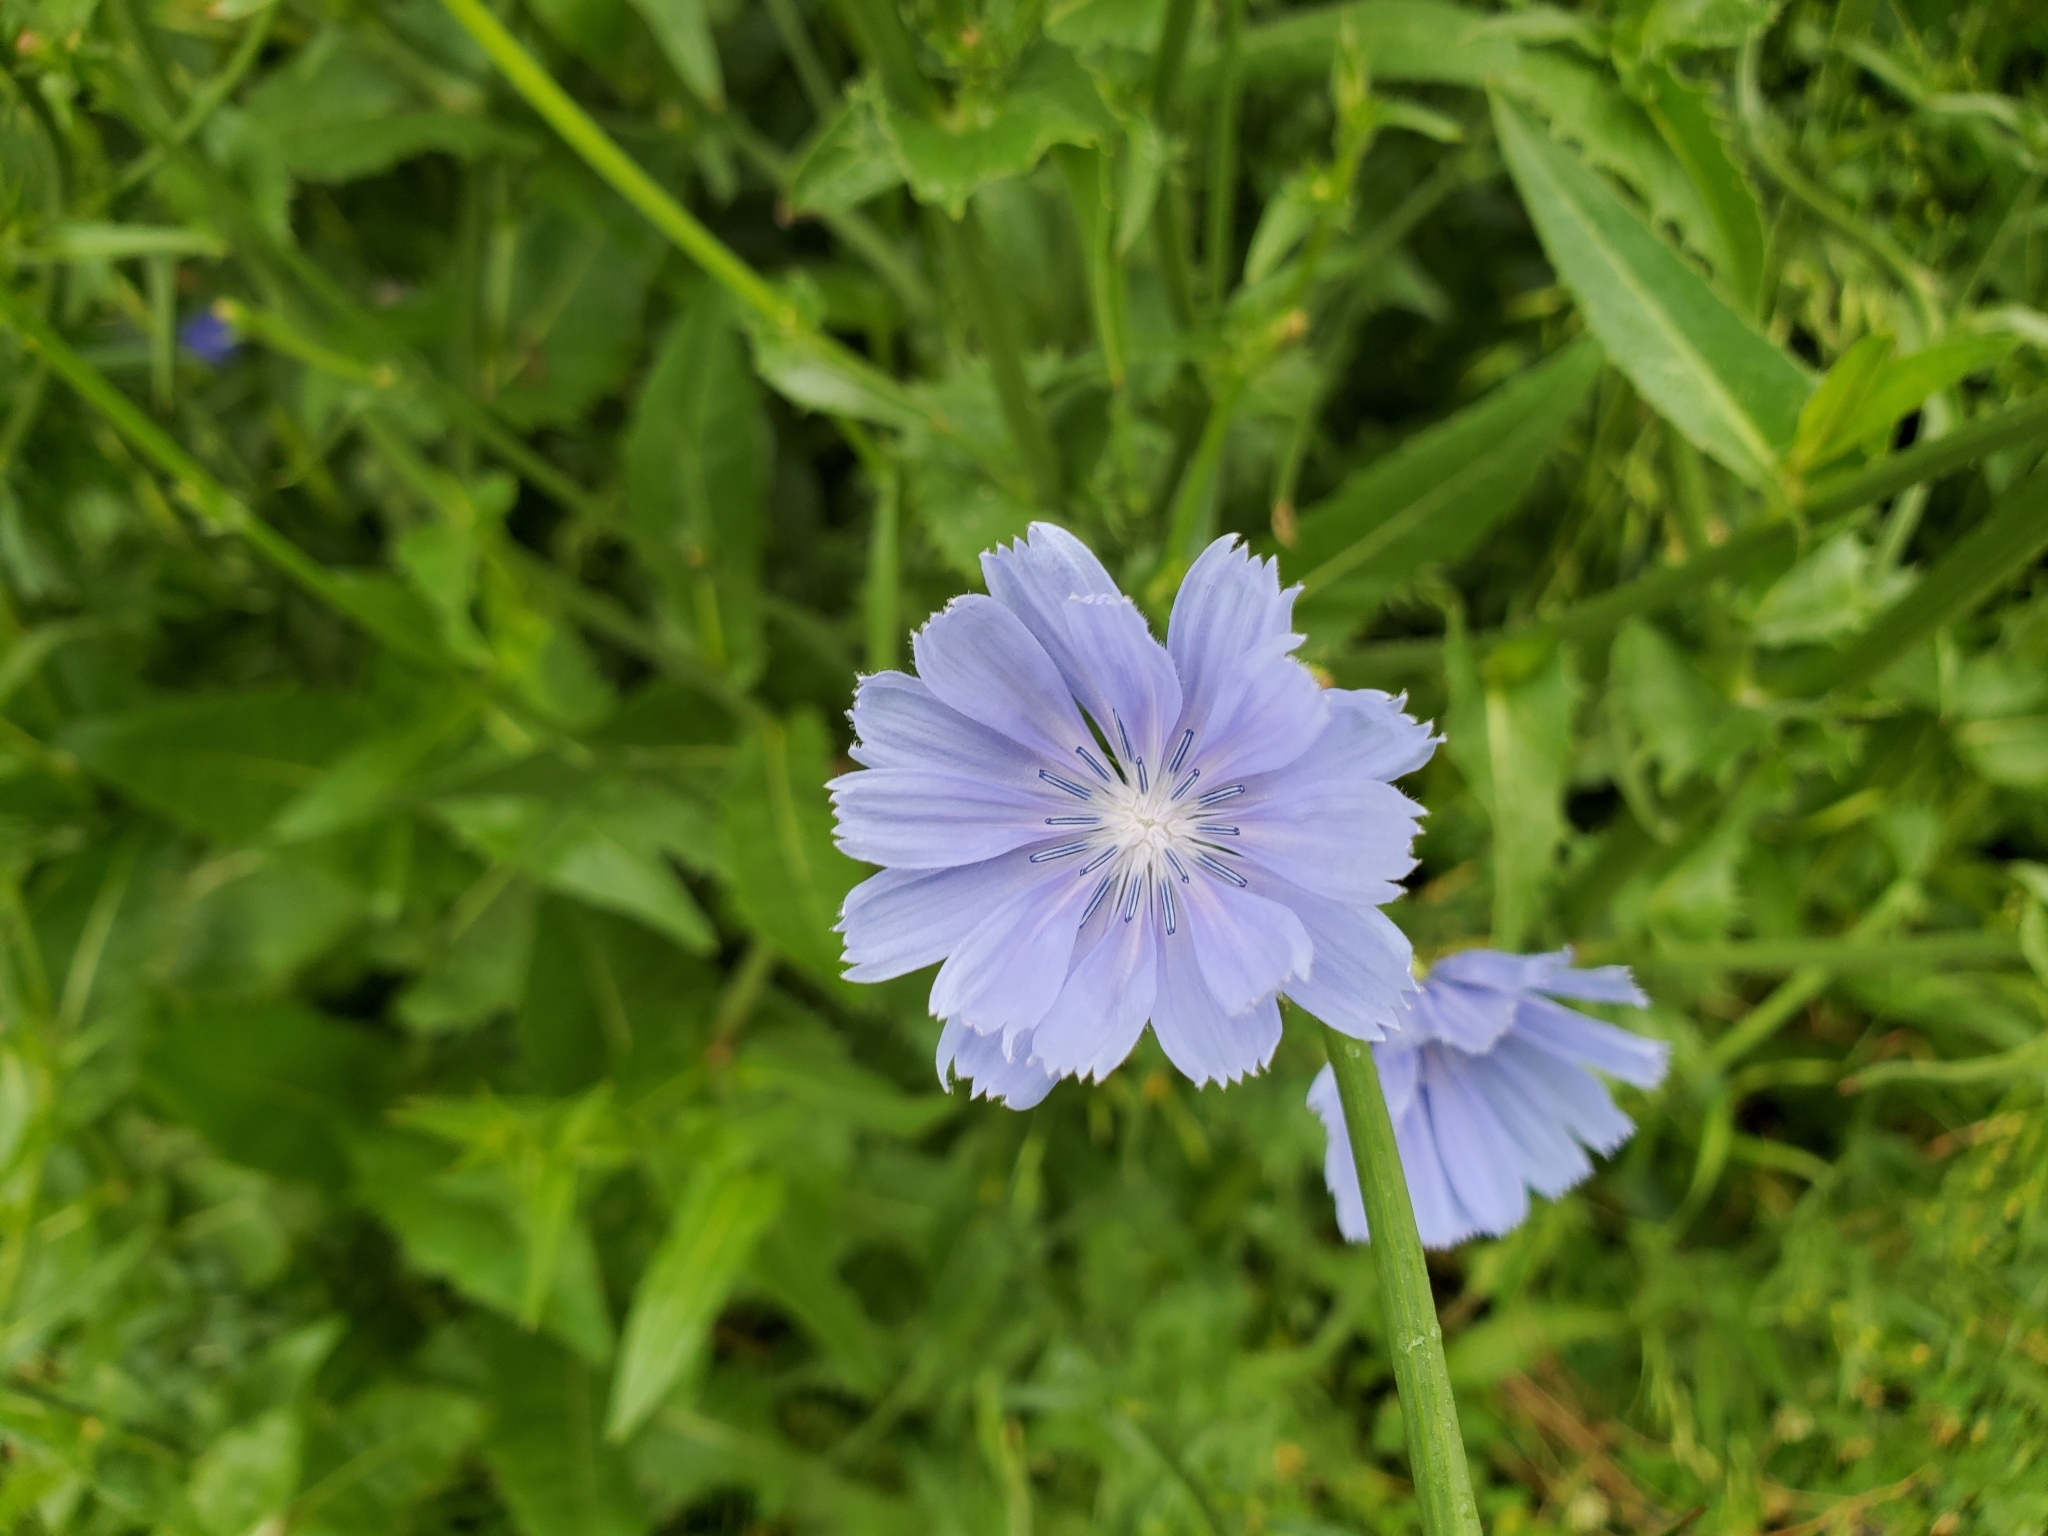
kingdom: Plantae
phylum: Tracheophyta
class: Magnoliopsida
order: Asterales
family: Asteraceae
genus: Cichorium
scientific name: Cichorium intybus
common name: Chicory
